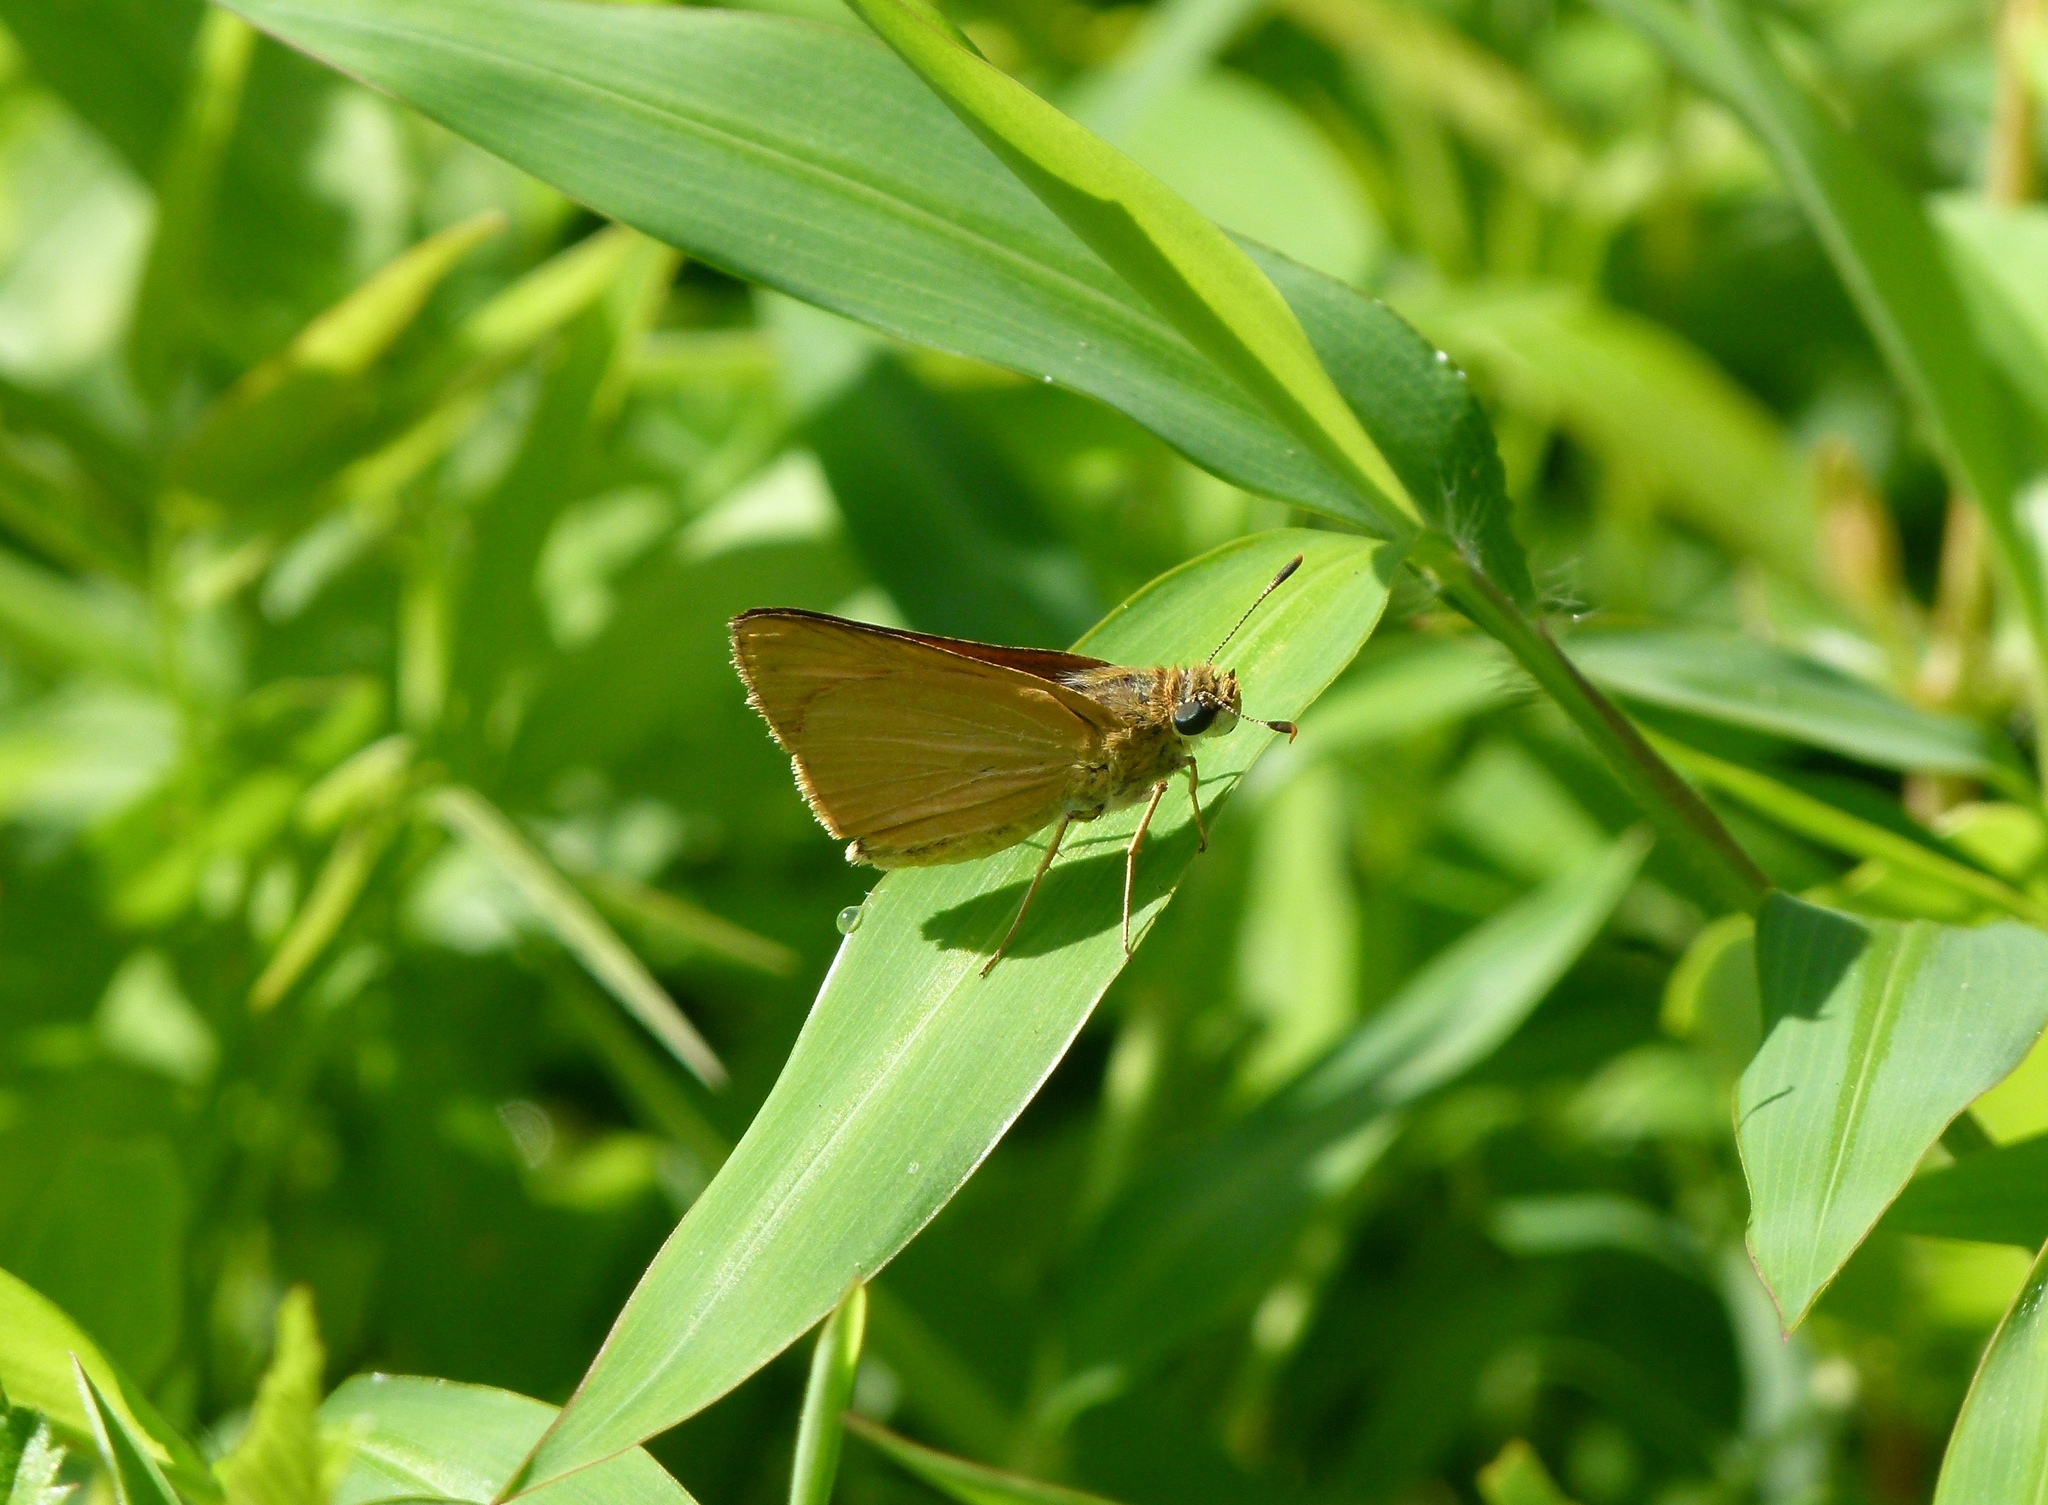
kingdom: Animalia
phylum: Arthropoda
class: Insecta
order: Lepidoptera
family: Hesperiidae
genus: Atrytone
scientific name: Atrytone delaware
